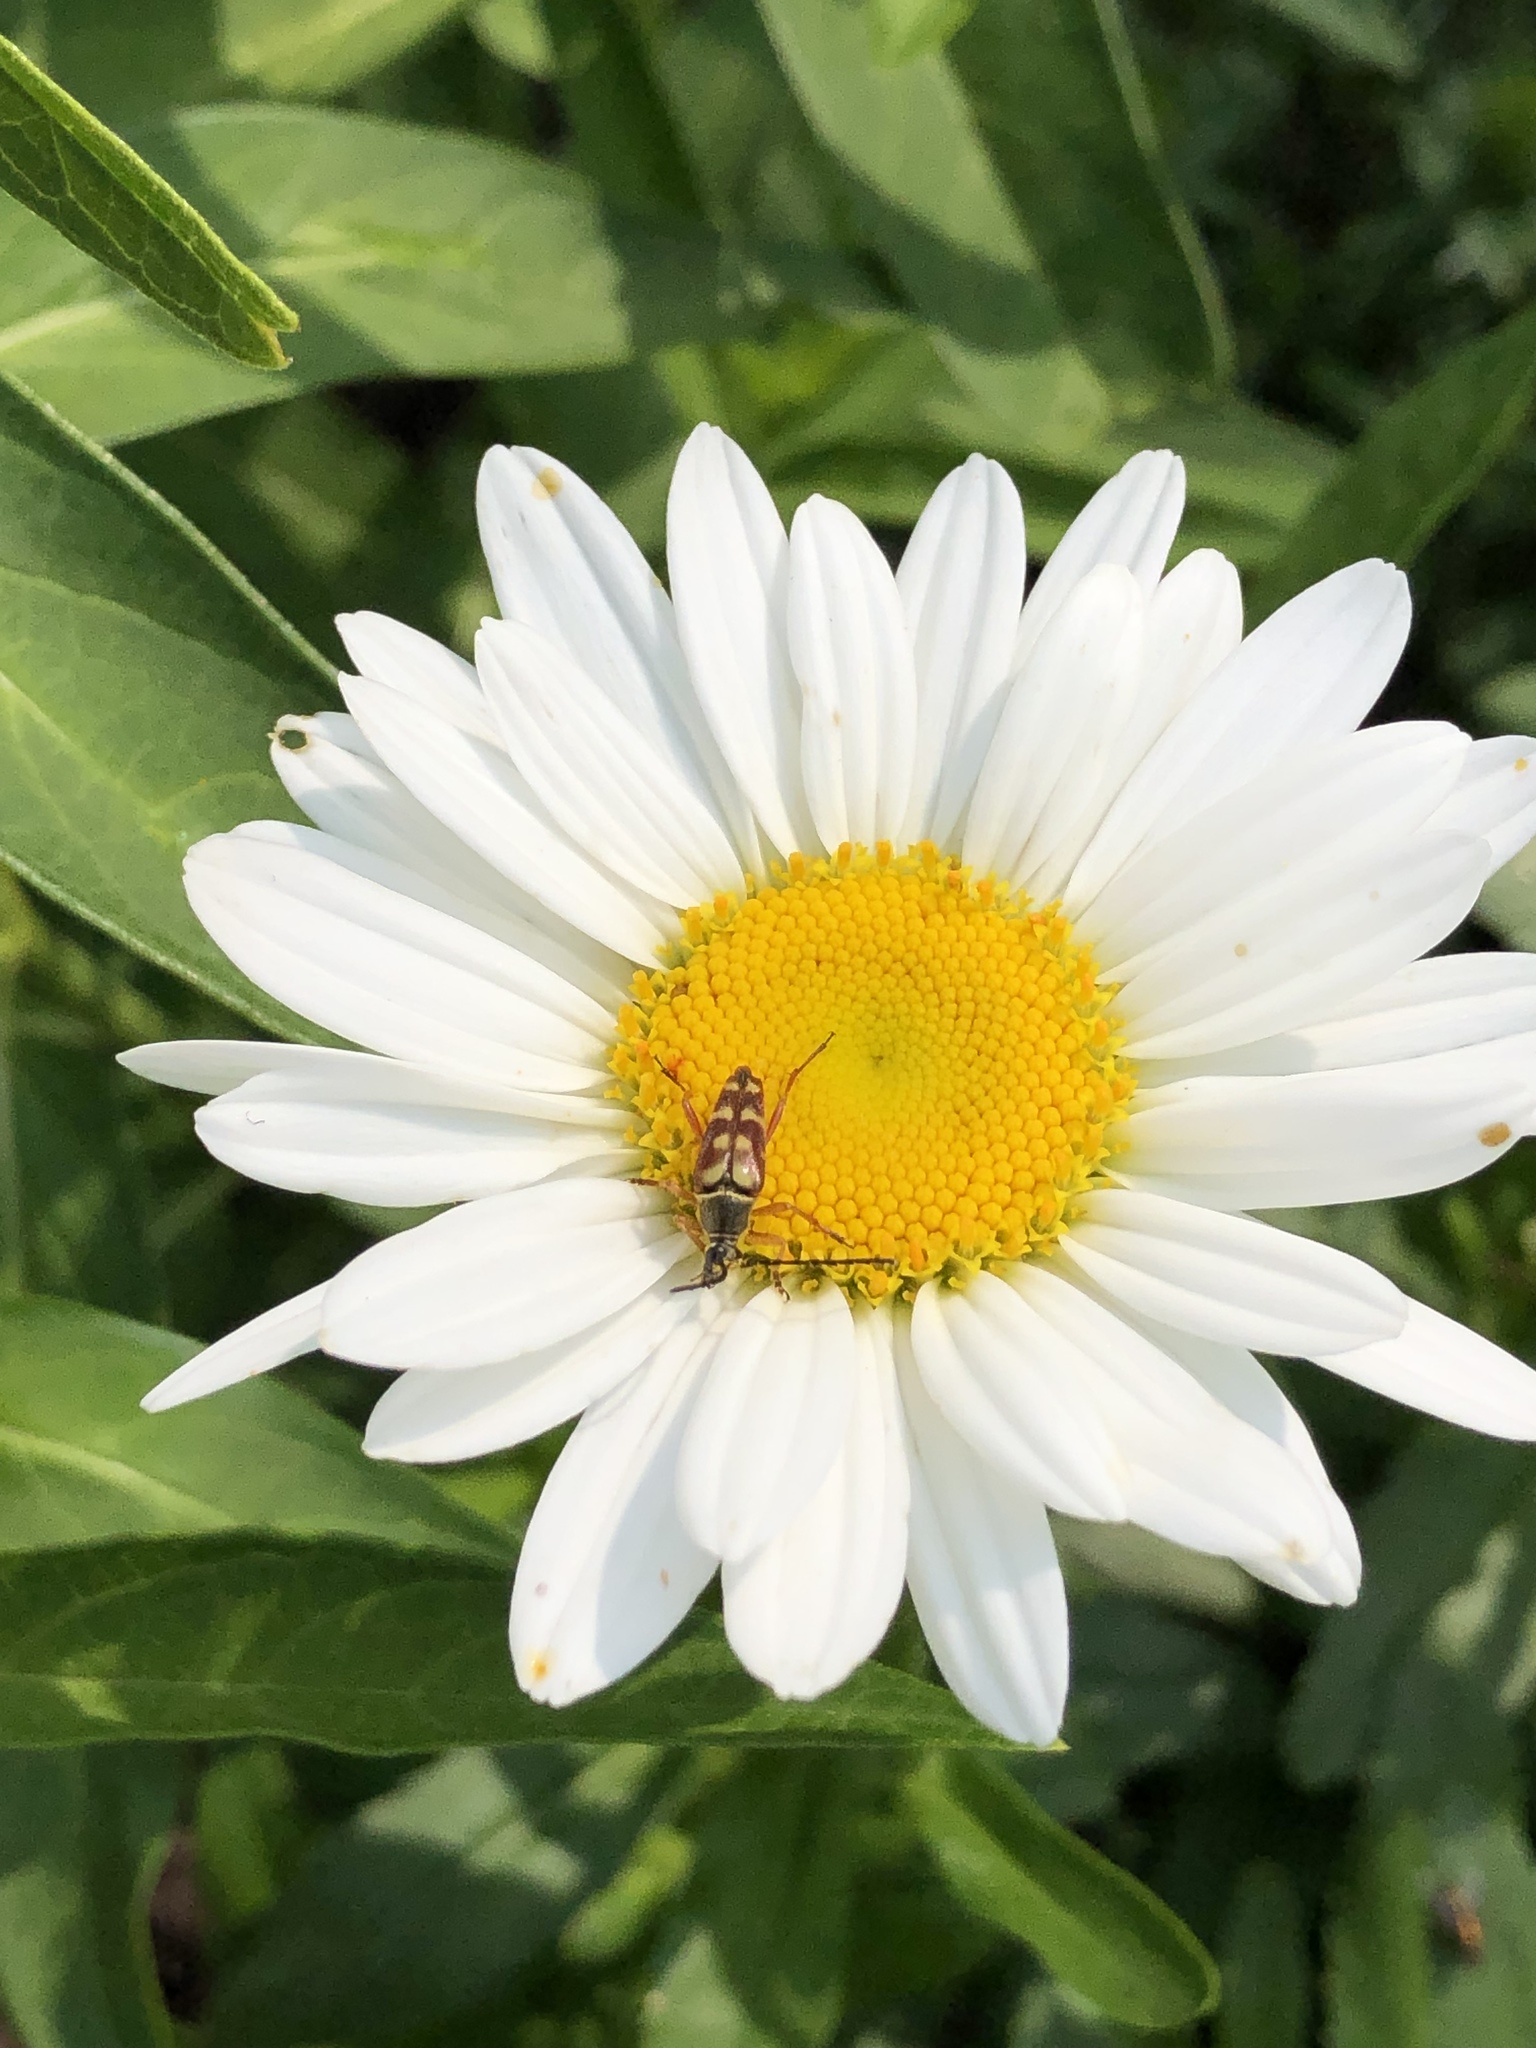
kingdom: Animalia
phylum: Arthropoda
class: Insecta
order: Coleoptera
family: Cerambycidae
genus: Typocerus
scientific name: Typocerus velutinus
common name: Banded longhorn beetle
